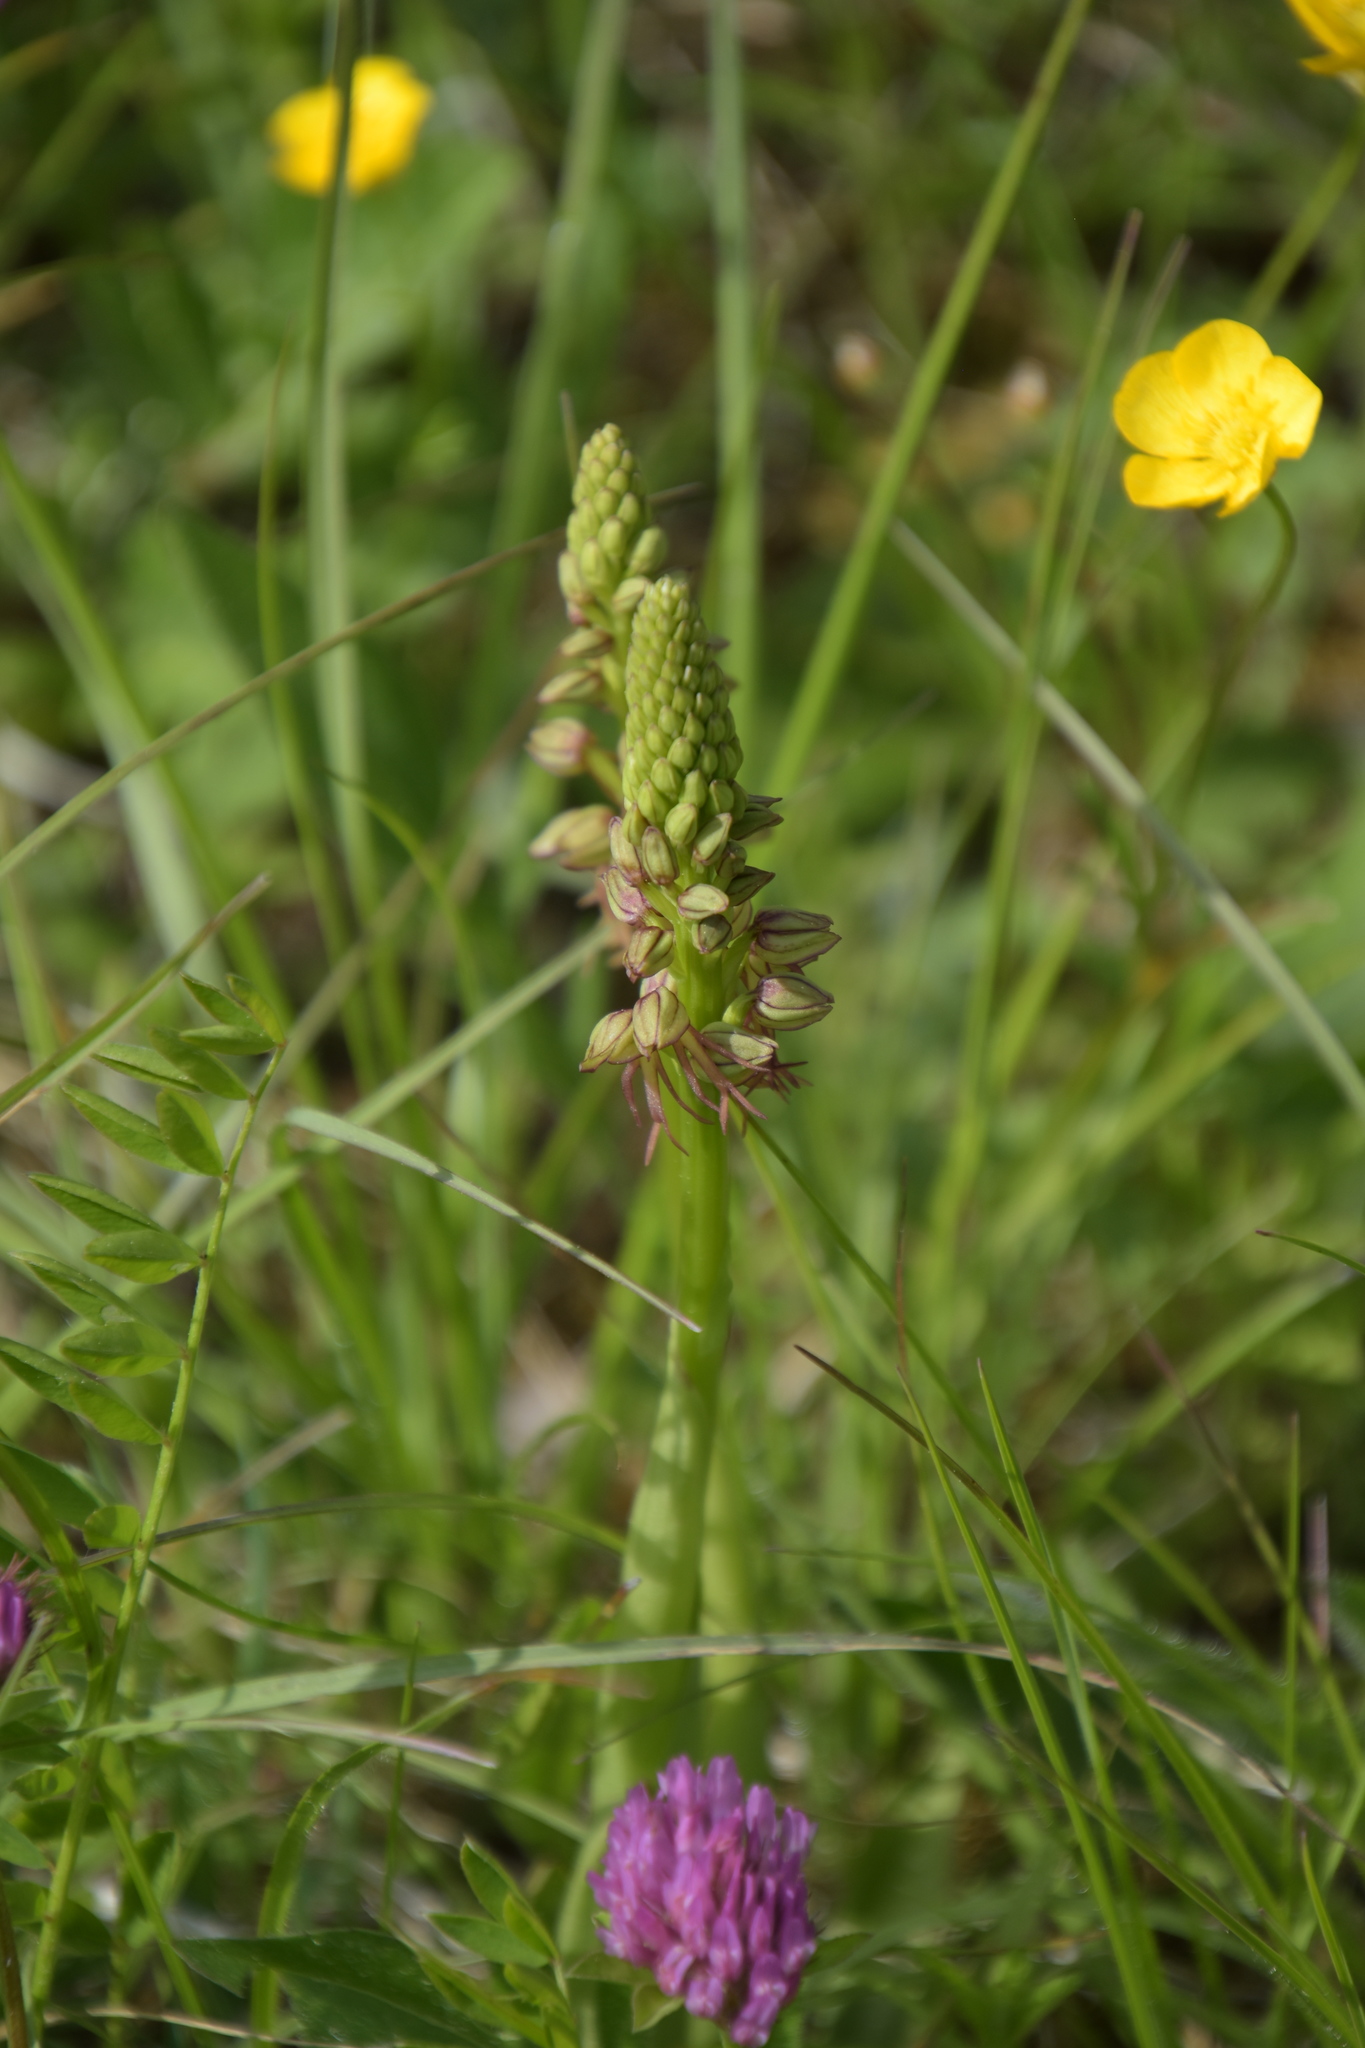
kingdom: Plantae
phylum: Tracheophyta
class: Liliopsida
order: Asparagales
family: Orchidaceae
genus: Orchis
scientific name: Orchis anthropophora
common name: Man orchid
